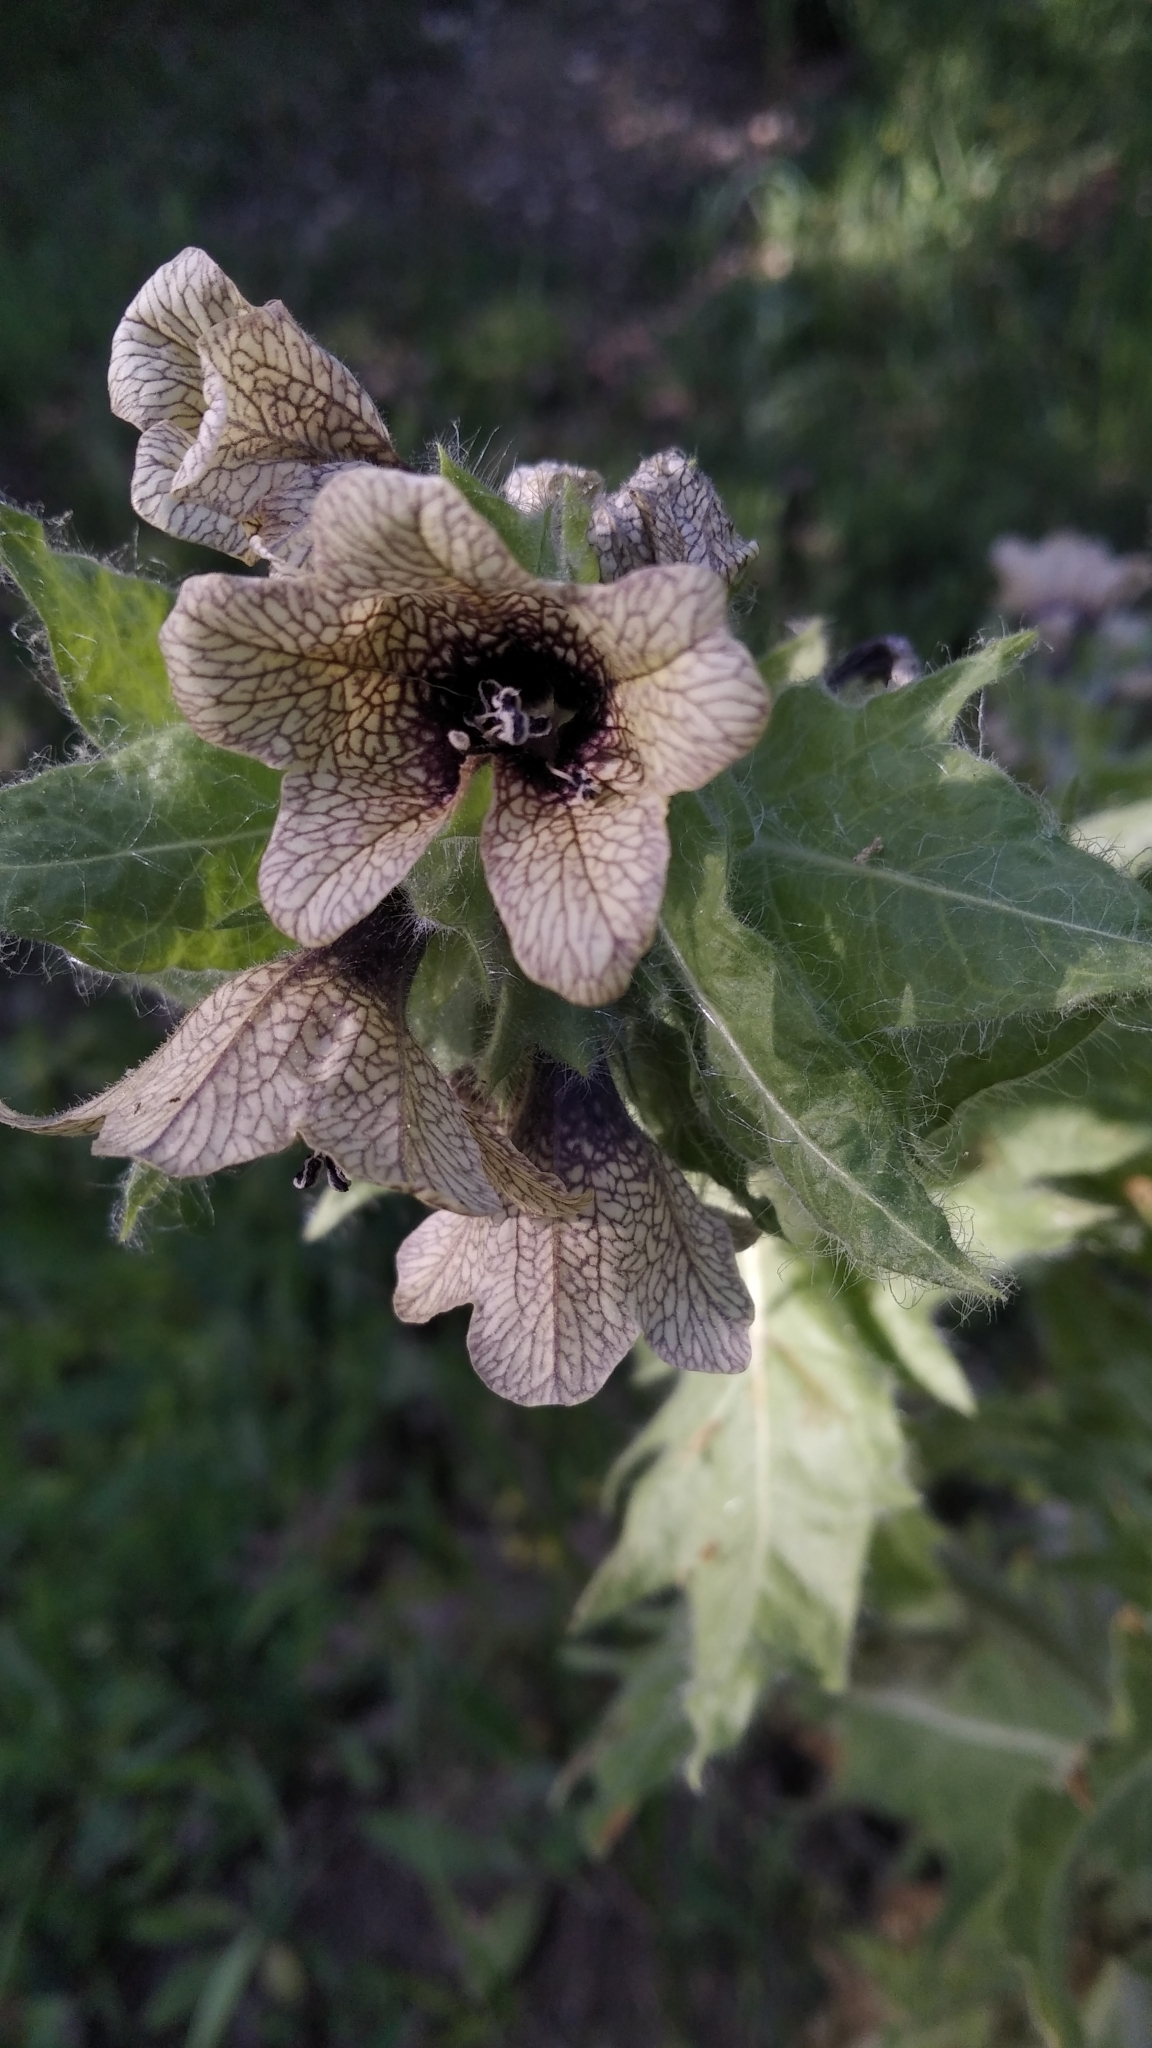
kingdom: Plantae
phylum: Tracheophyta
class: Magnoliopsida
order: Solanales
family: Solanaceae
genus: Hyoscyamus
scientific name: Hyoscyamus niger
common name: Henbane
